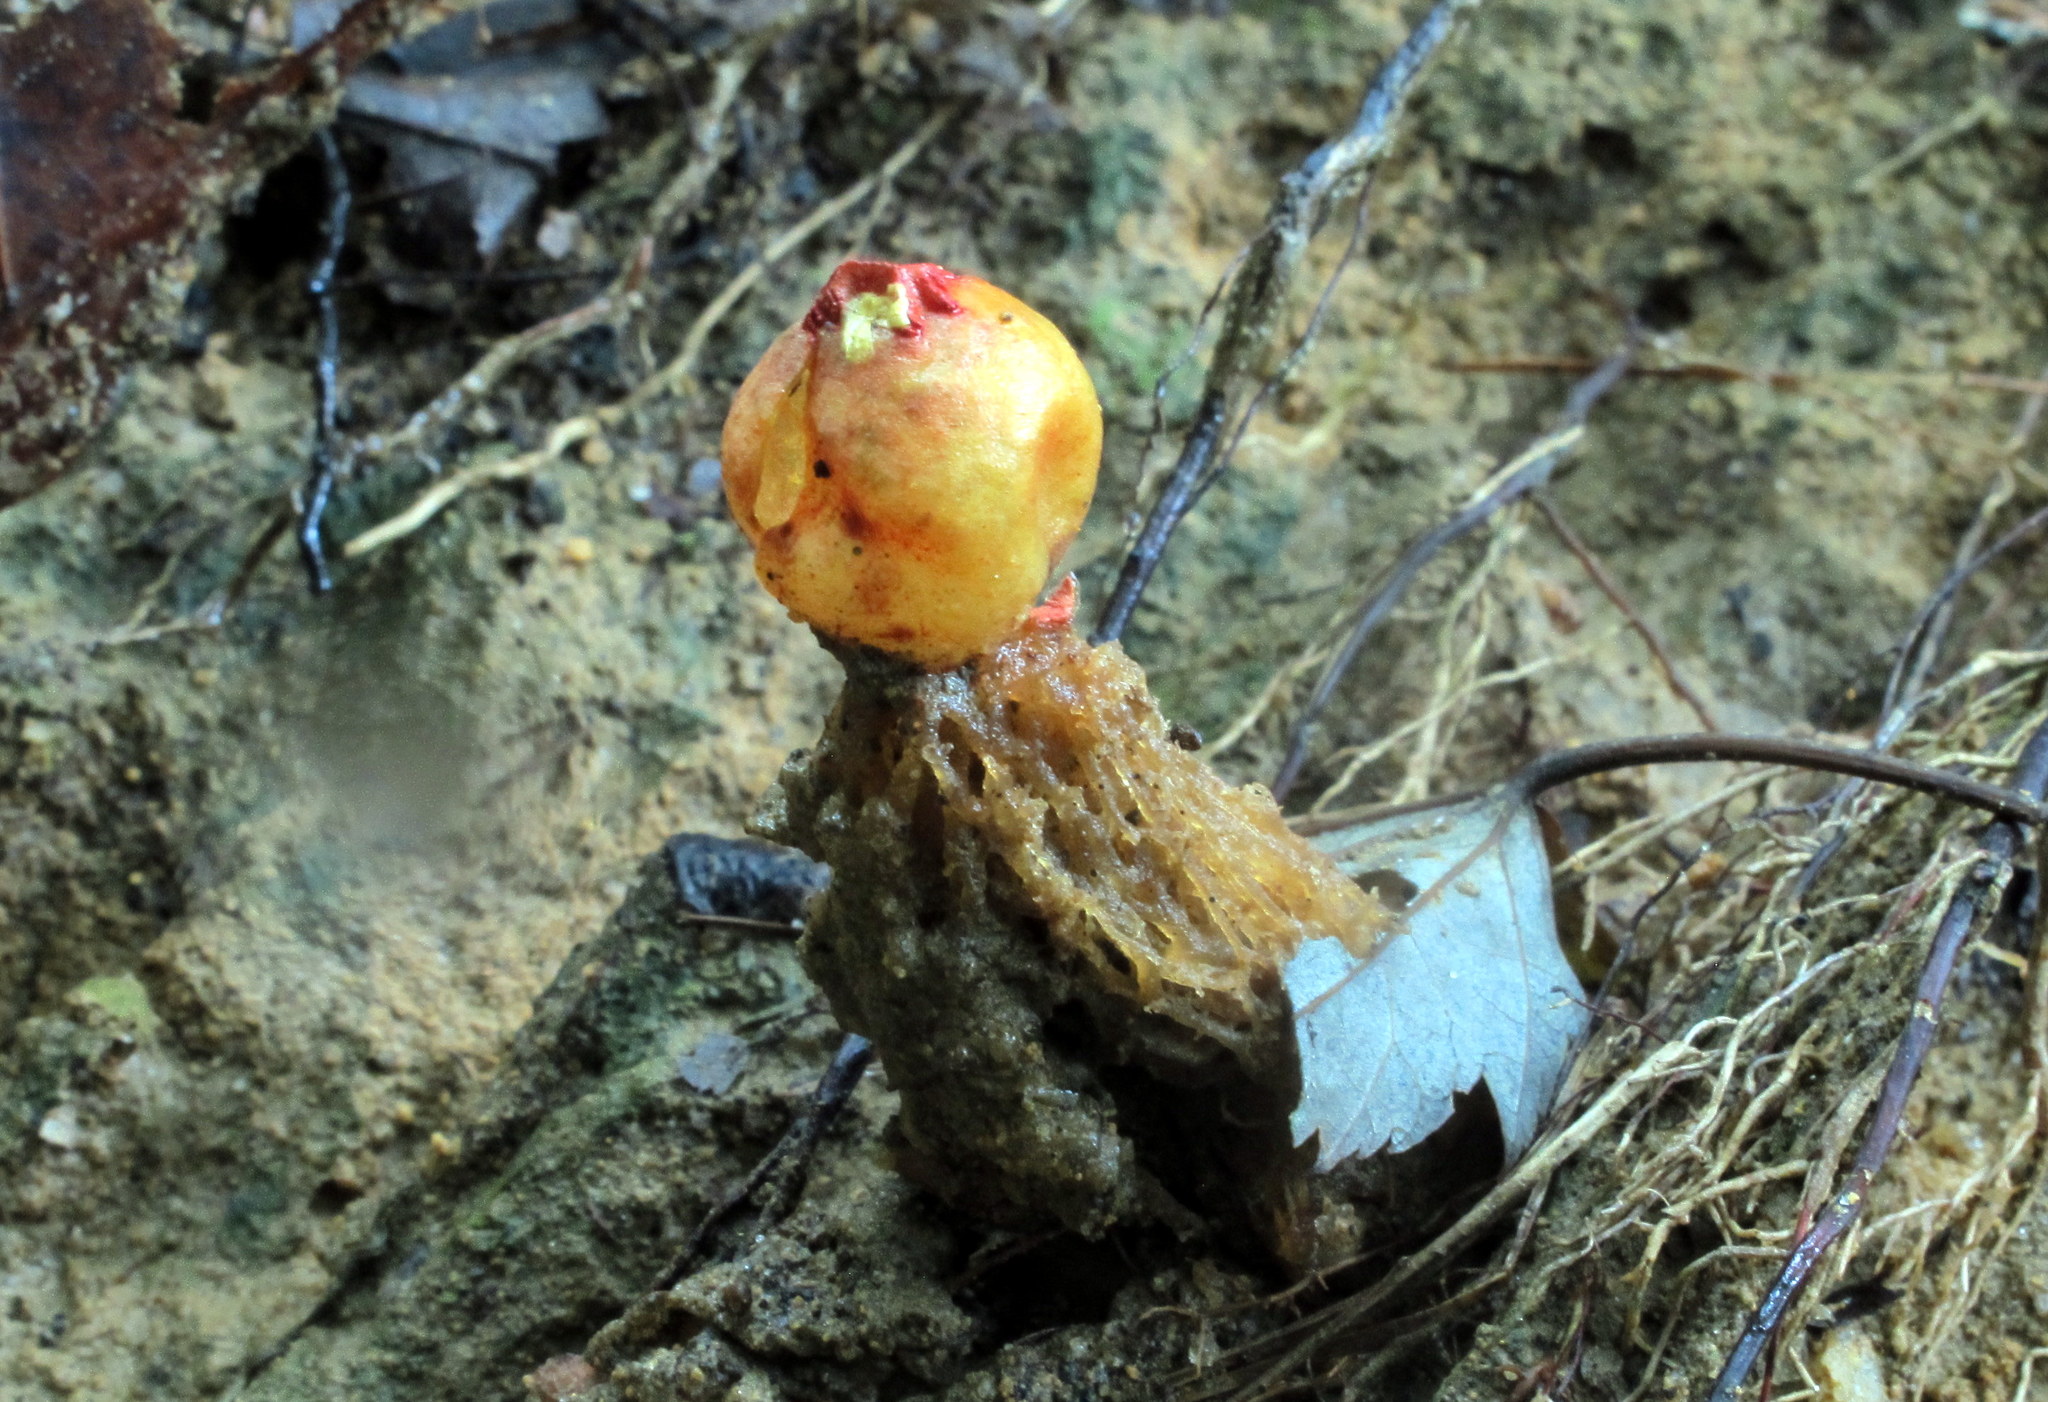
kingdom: Fungi
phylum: Basidiomycota
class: Agaricomycetes
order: Boletales
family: Calostomataceae
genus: Calostoma
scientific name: Calostoma cinnabarinum
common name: Stalked puffball-in-aspic
